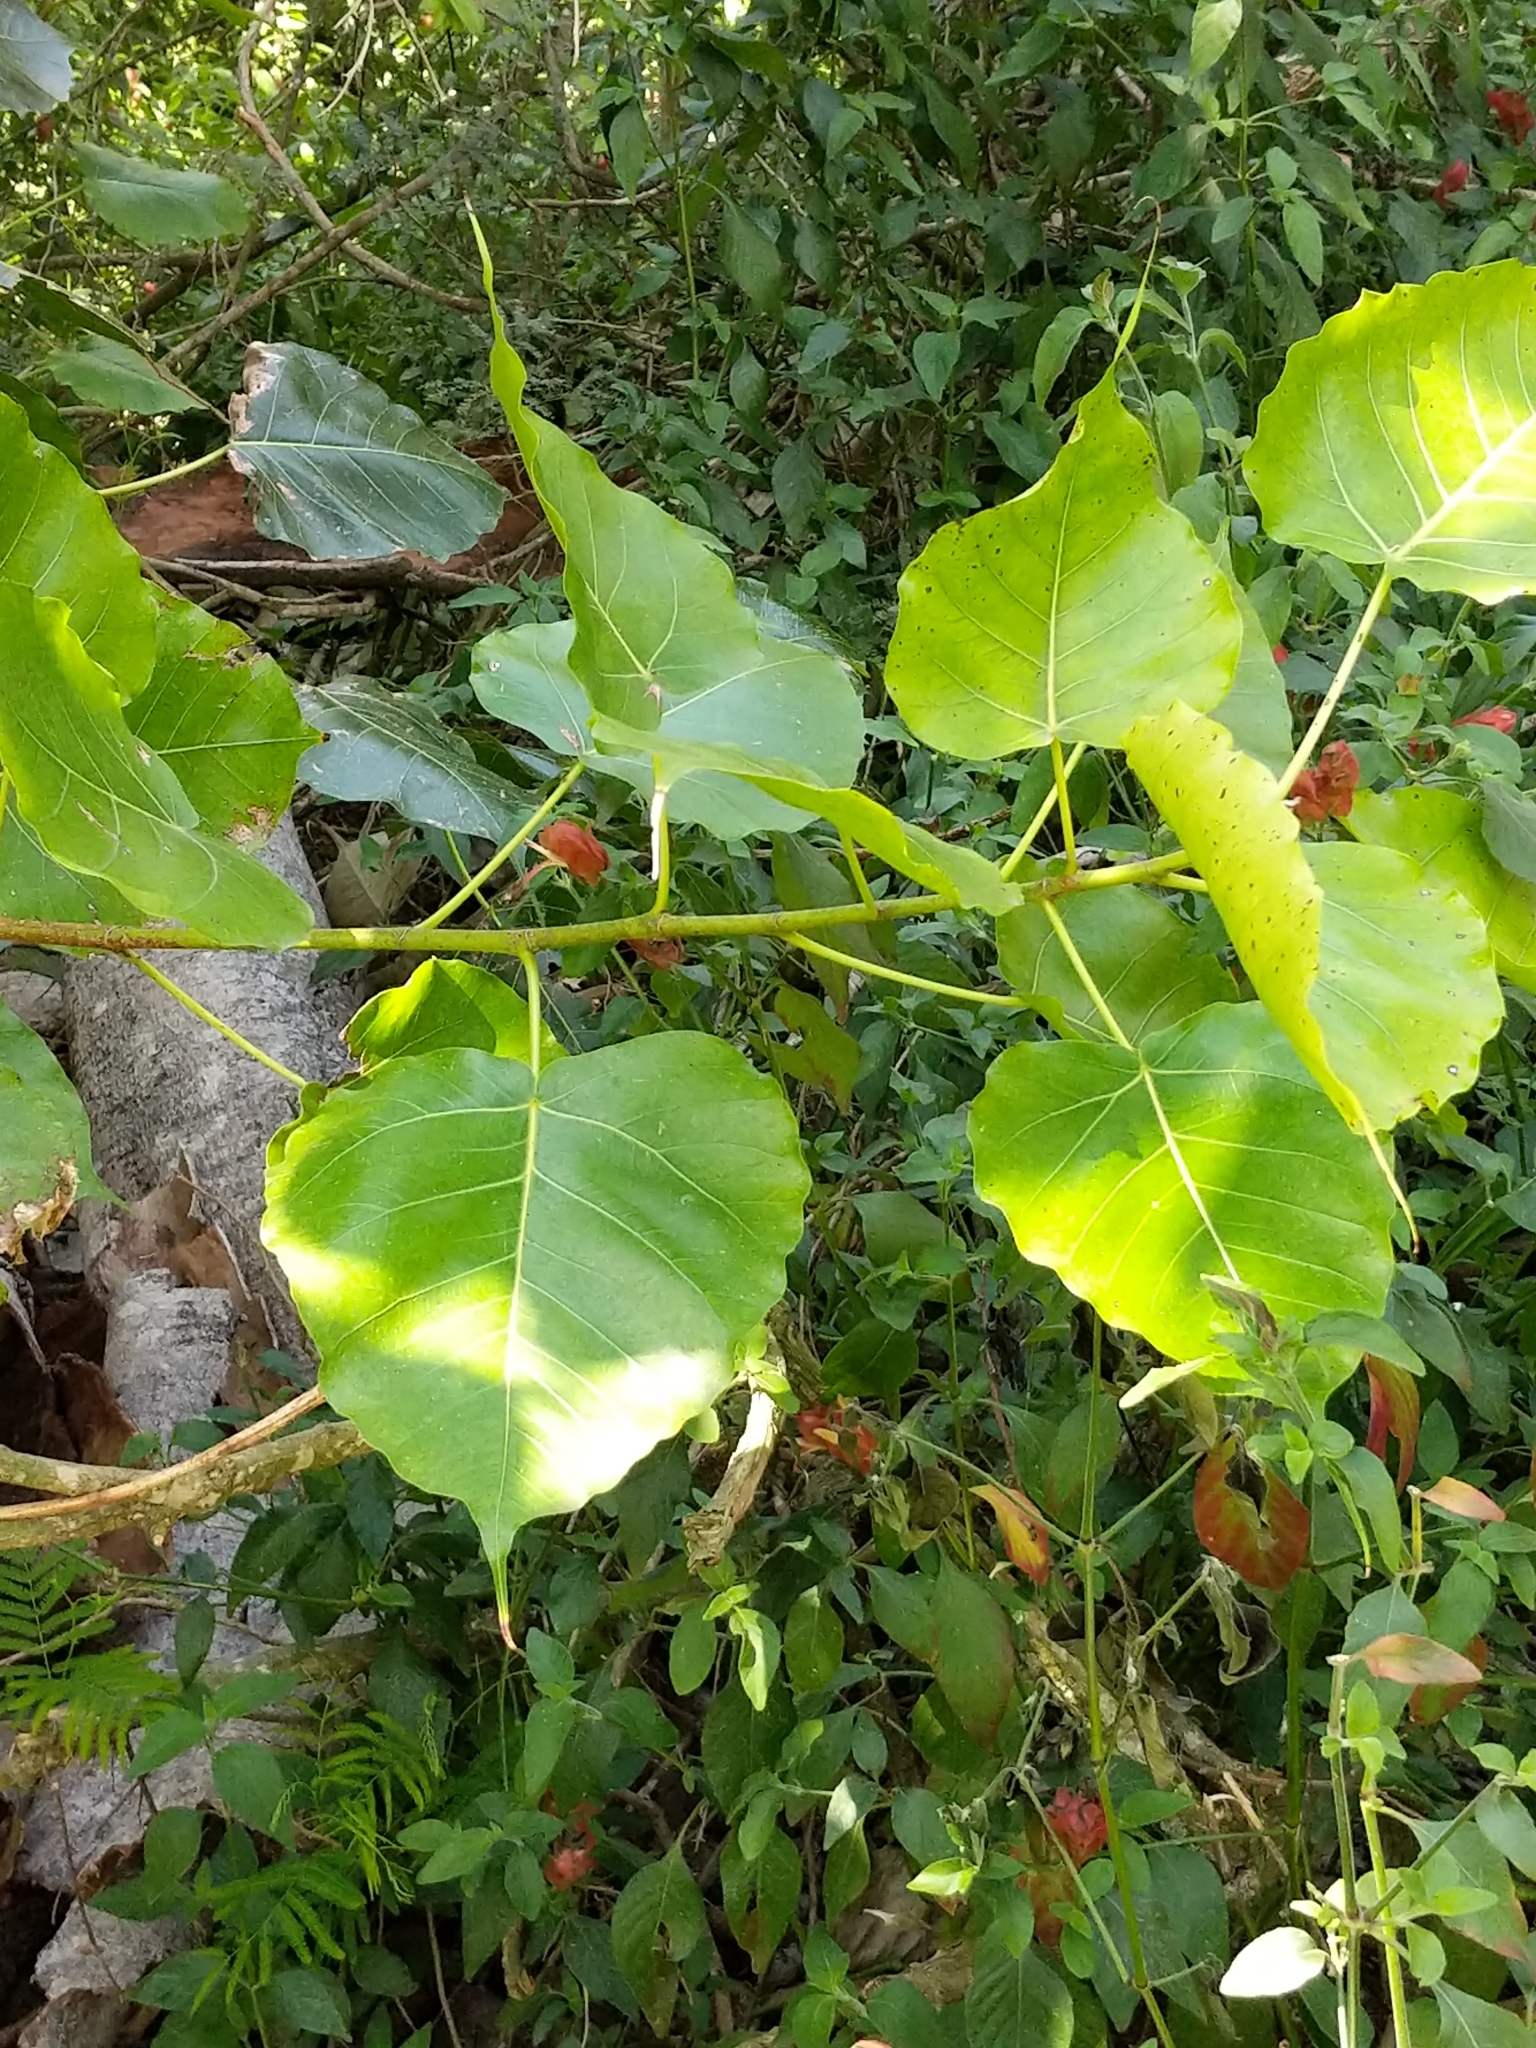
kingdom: Plantae
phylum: Tracheophyta
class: Magnoliopsida
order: Rosales
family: Moraceae
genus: Ficus
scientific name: Ficus religiosa
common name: Bodhi tree
